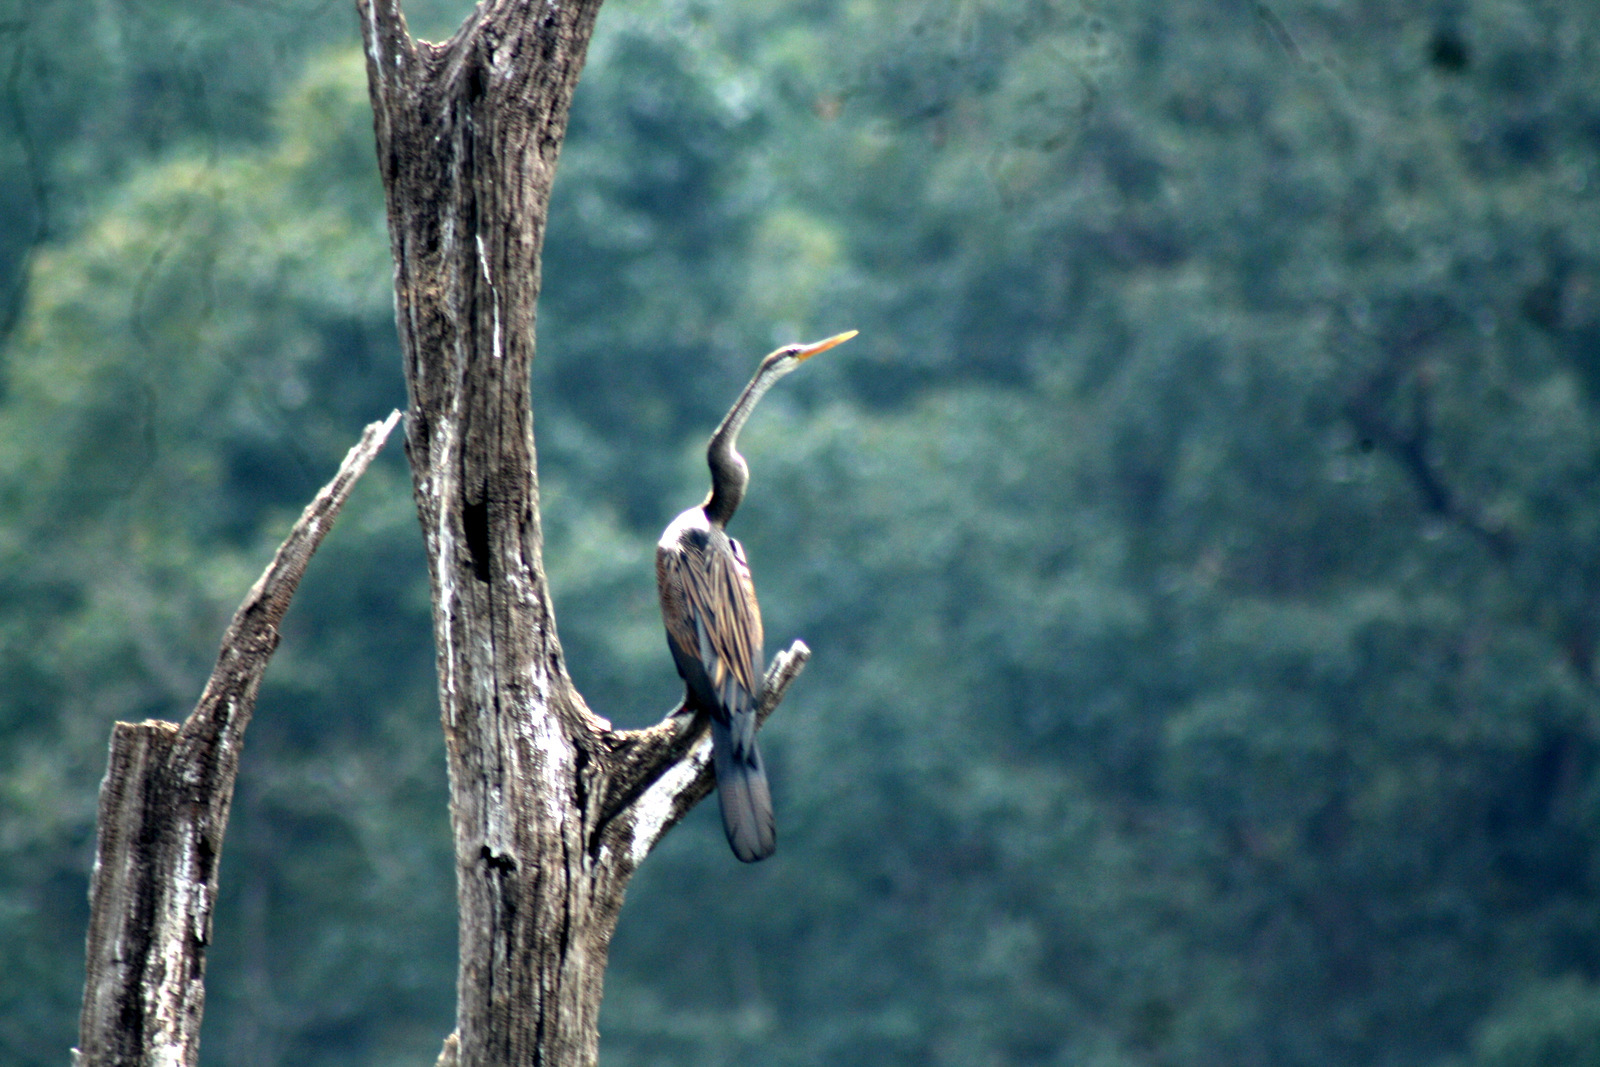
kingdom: Animalia
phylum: Chordata
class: Aves
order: Suliformes
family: Anhingidae
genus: Anhinga
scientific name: Anhinga melanogaster
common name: Oriental darter
